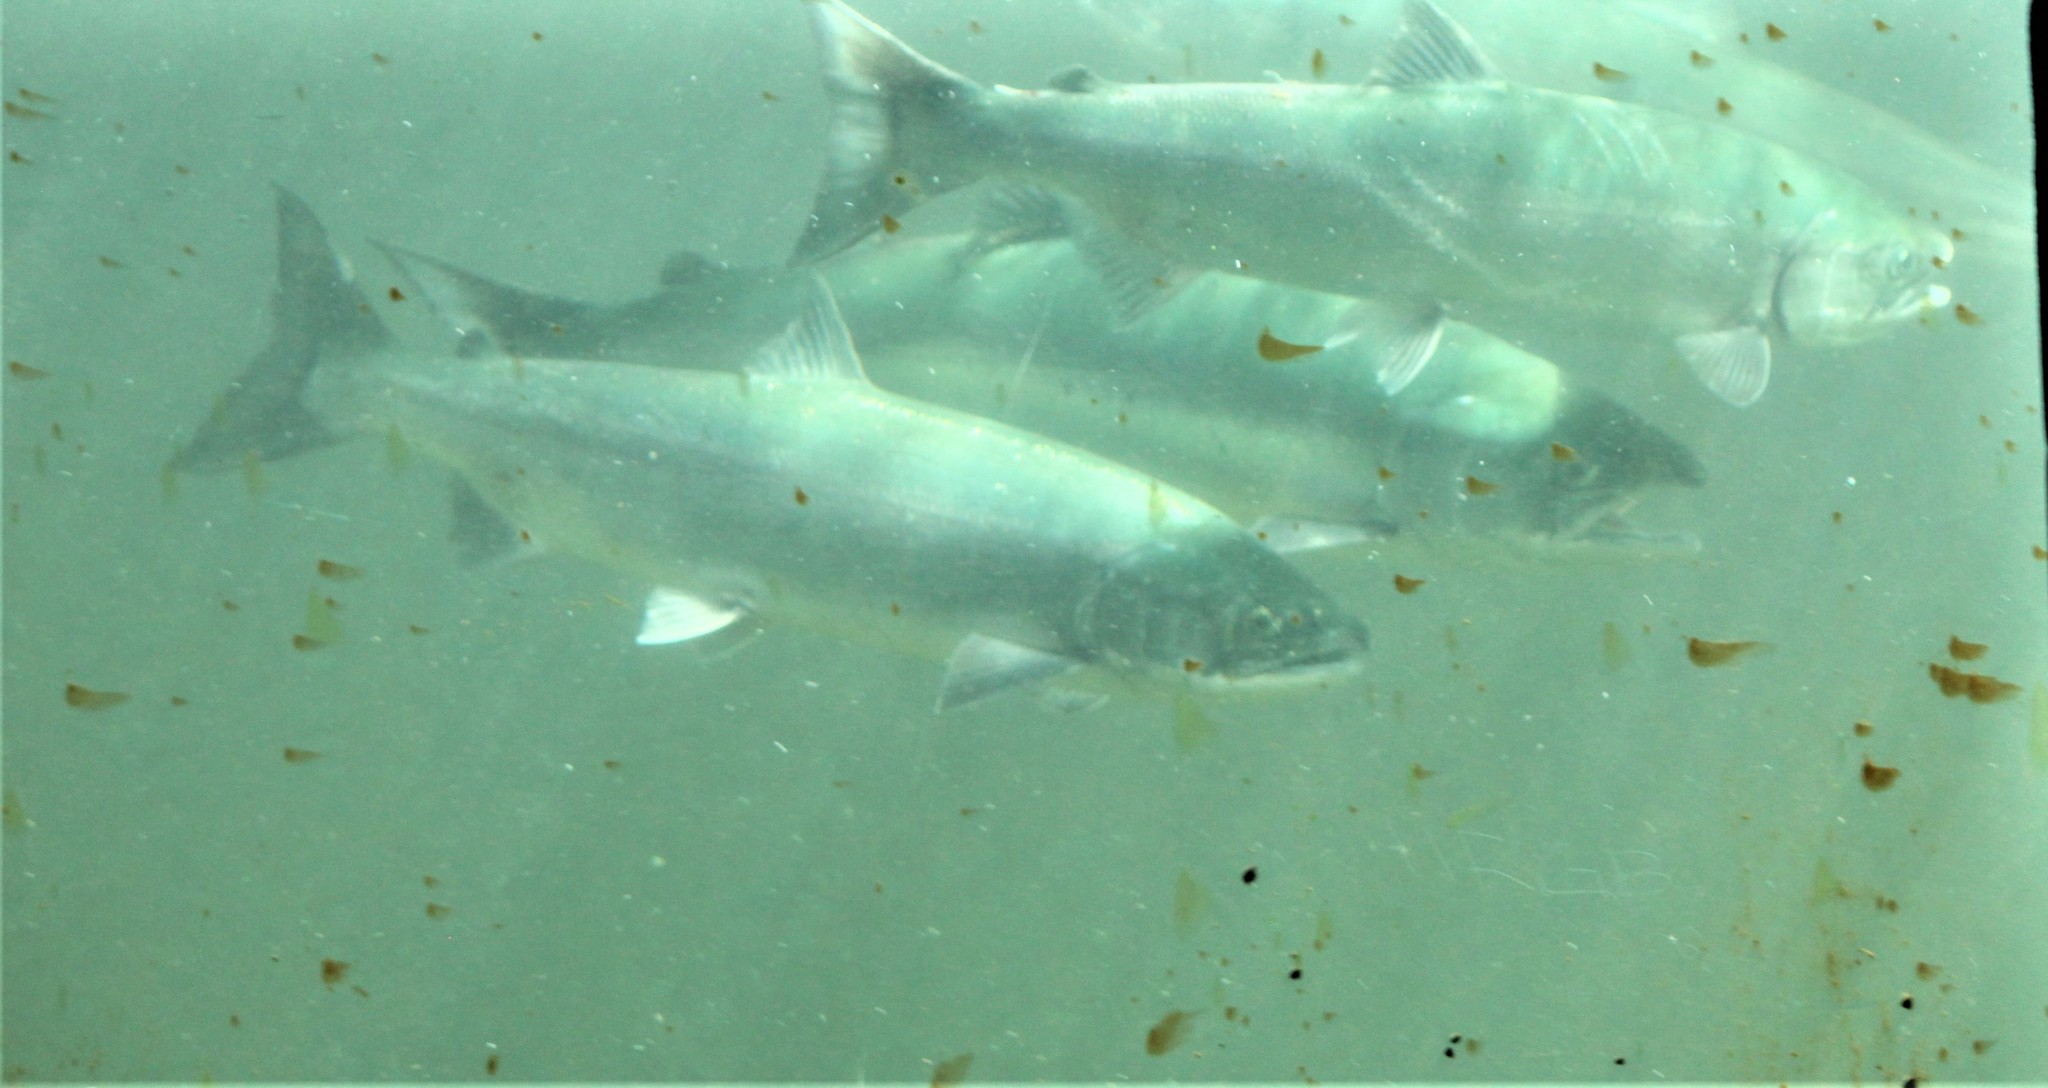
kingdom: Animalia
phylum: Chordata
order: Salmoniformes
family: Salmonidae
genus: Oncorhynchus
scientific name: Oncorhynchus nerka
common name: Sockeye salmon
